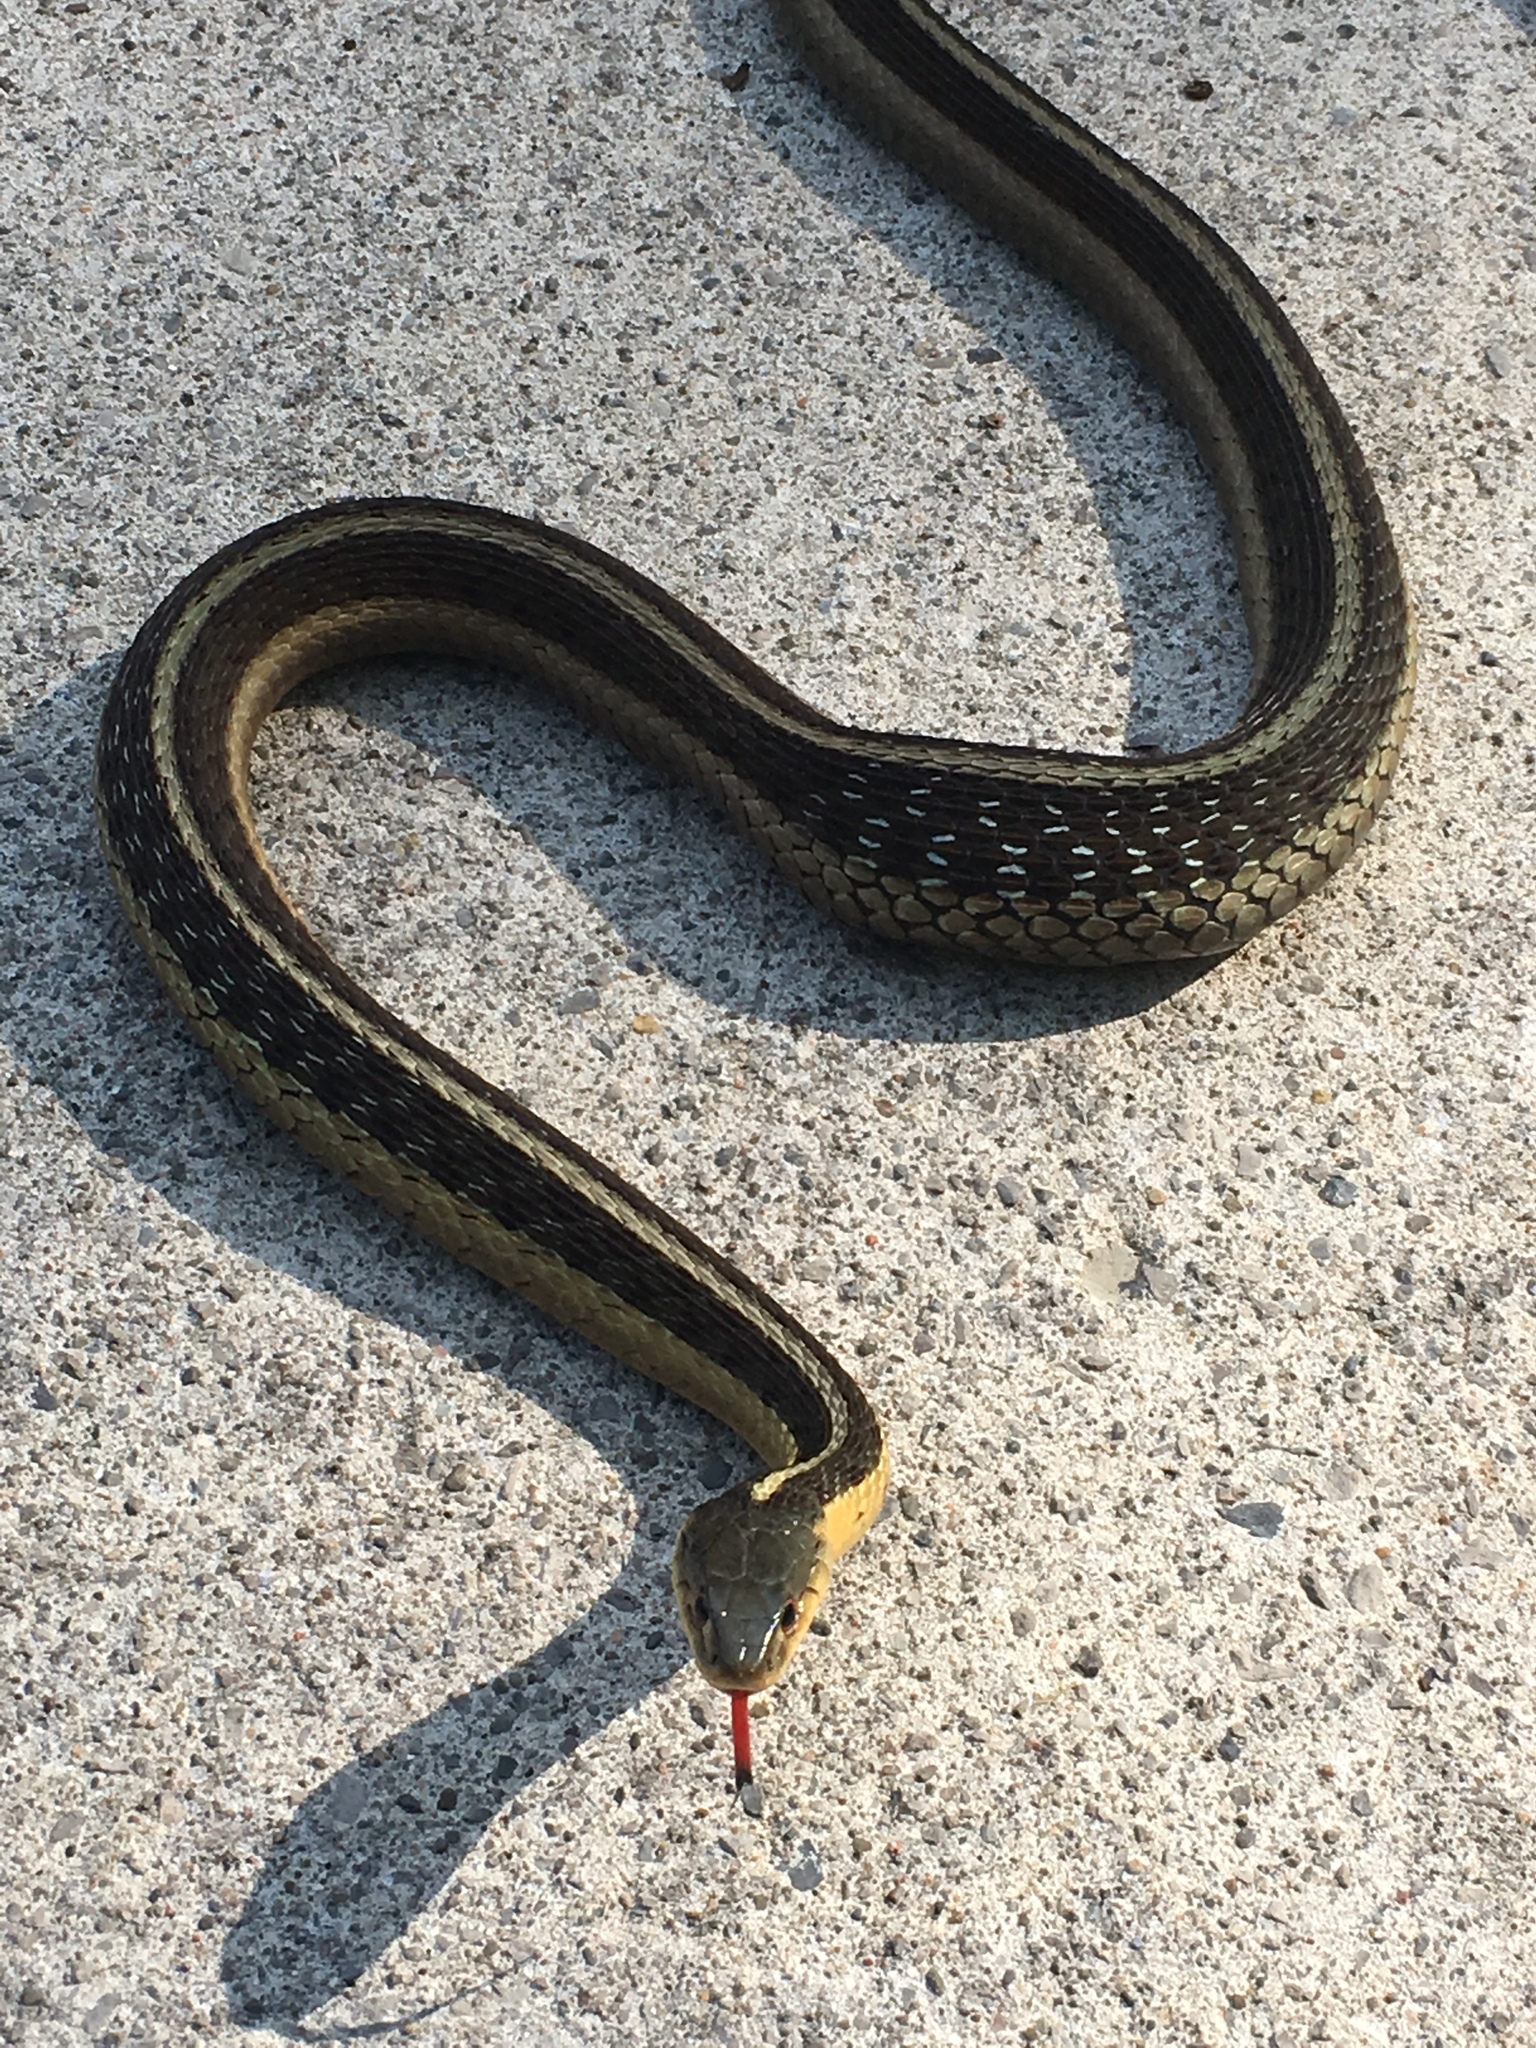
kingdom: Animalia
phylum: Chordata
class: Squamata
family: Colubridae
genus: Thamnophis
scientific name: Thamnophis sirtalis
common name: Common garter snake
